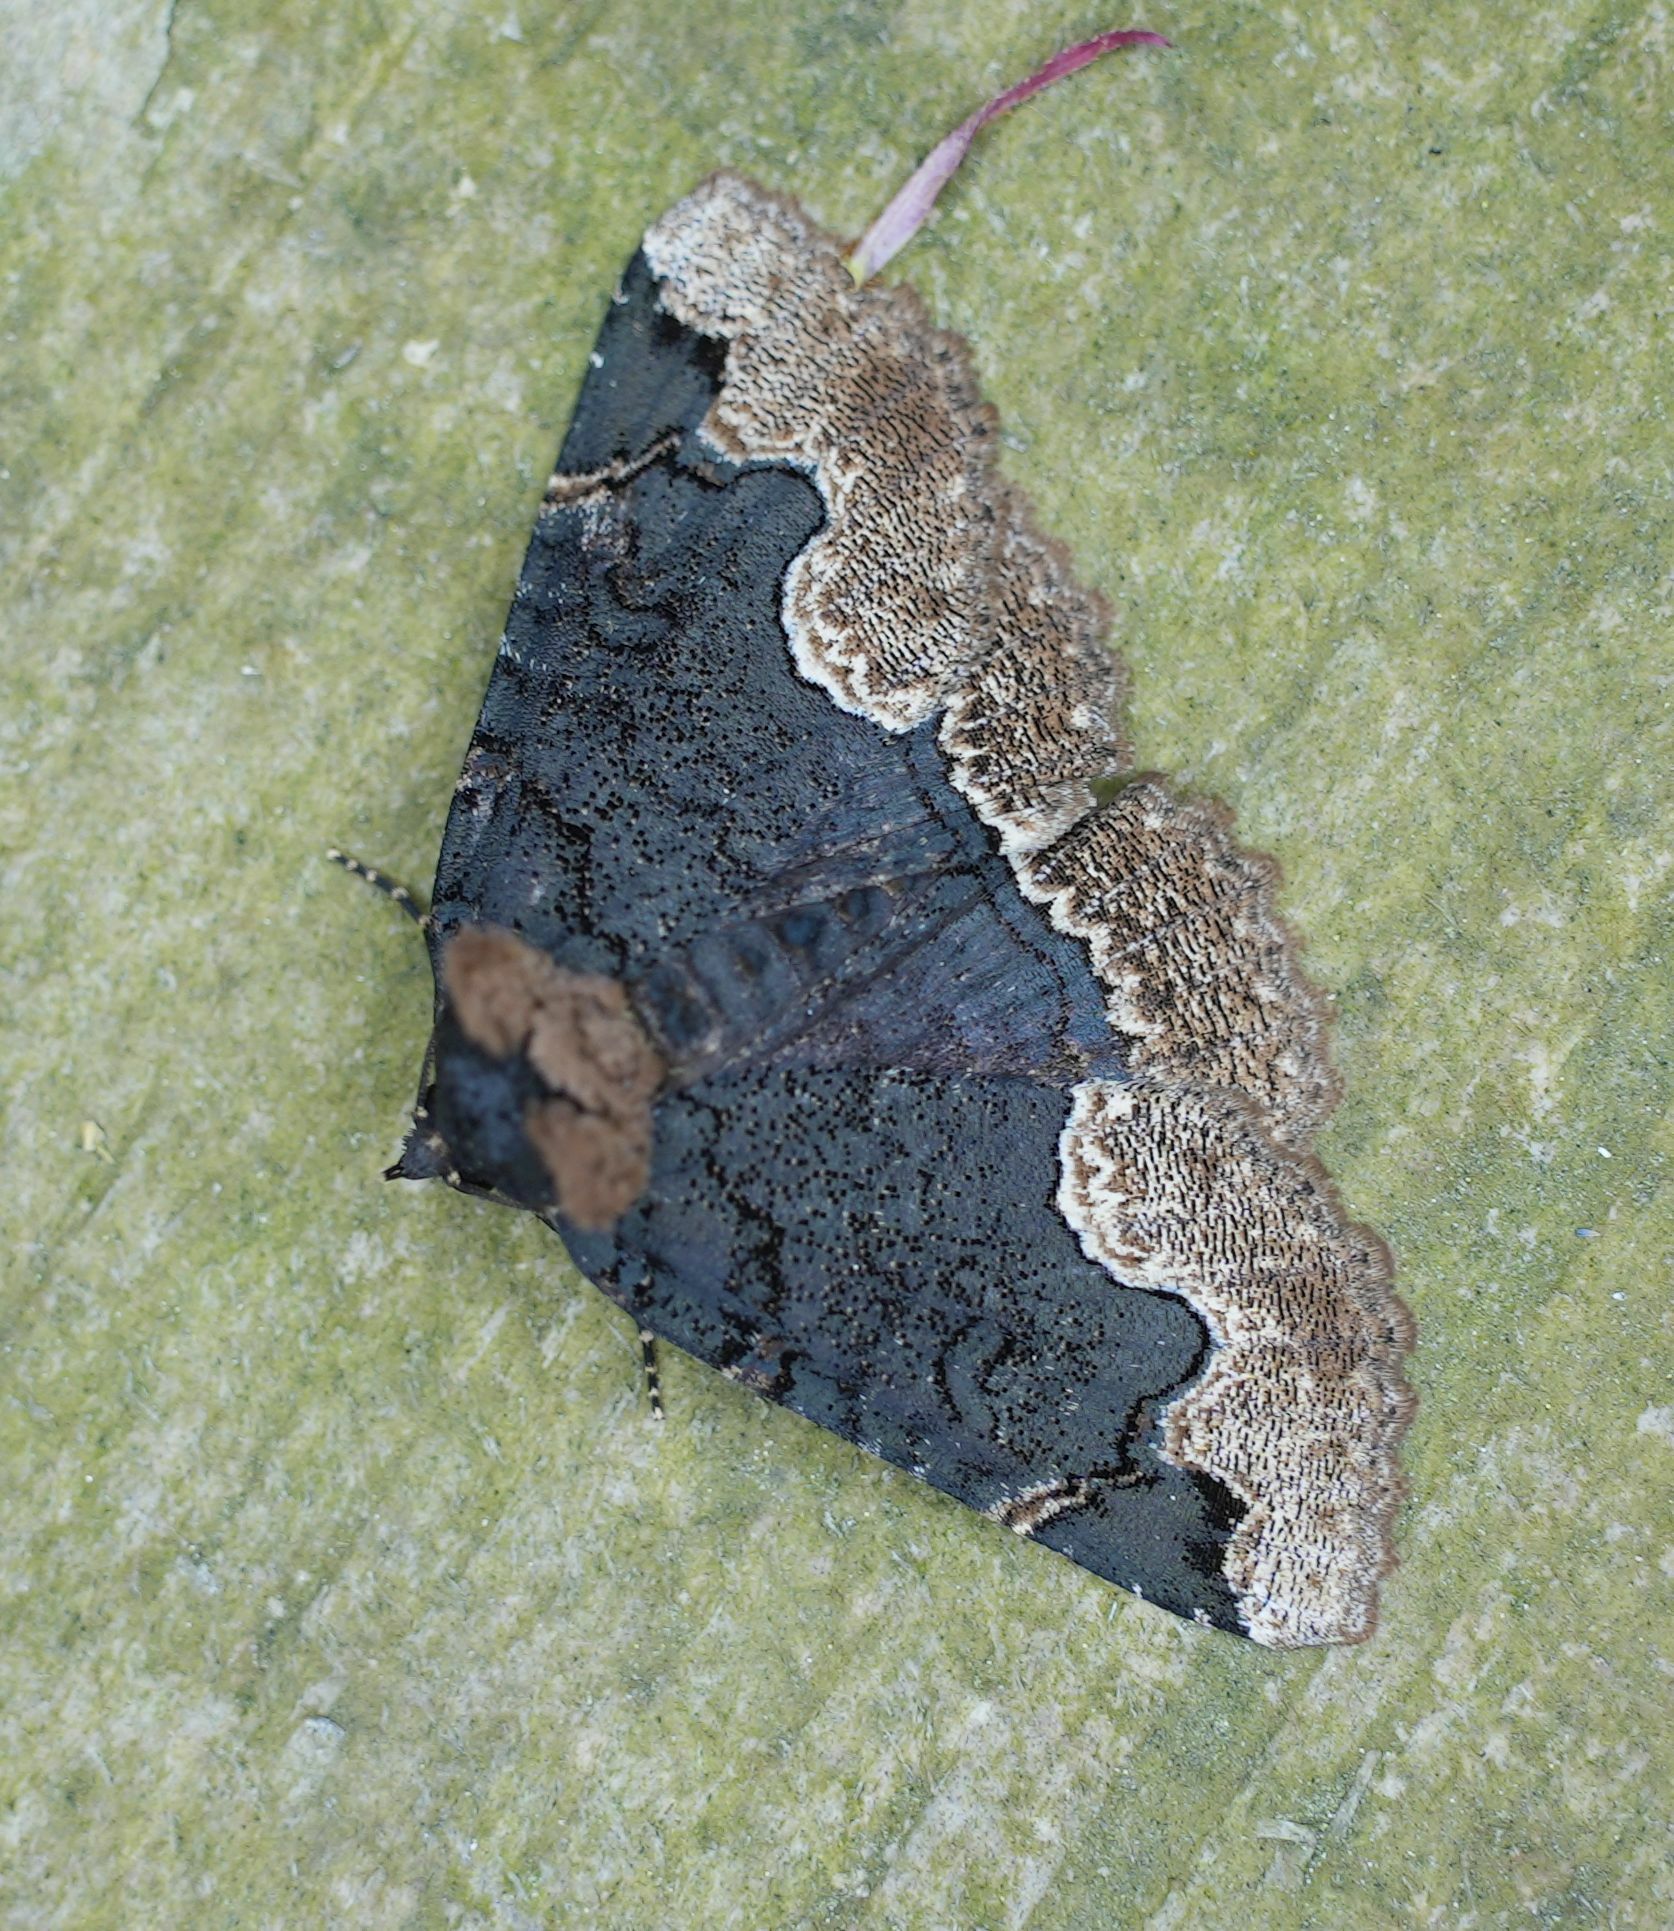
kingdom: Animalia
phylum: Arthropoda
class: Insecta
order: Lepidoptera
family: Erebidae
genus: Zale
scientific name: Zale horrida
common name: Horrid zale moth
